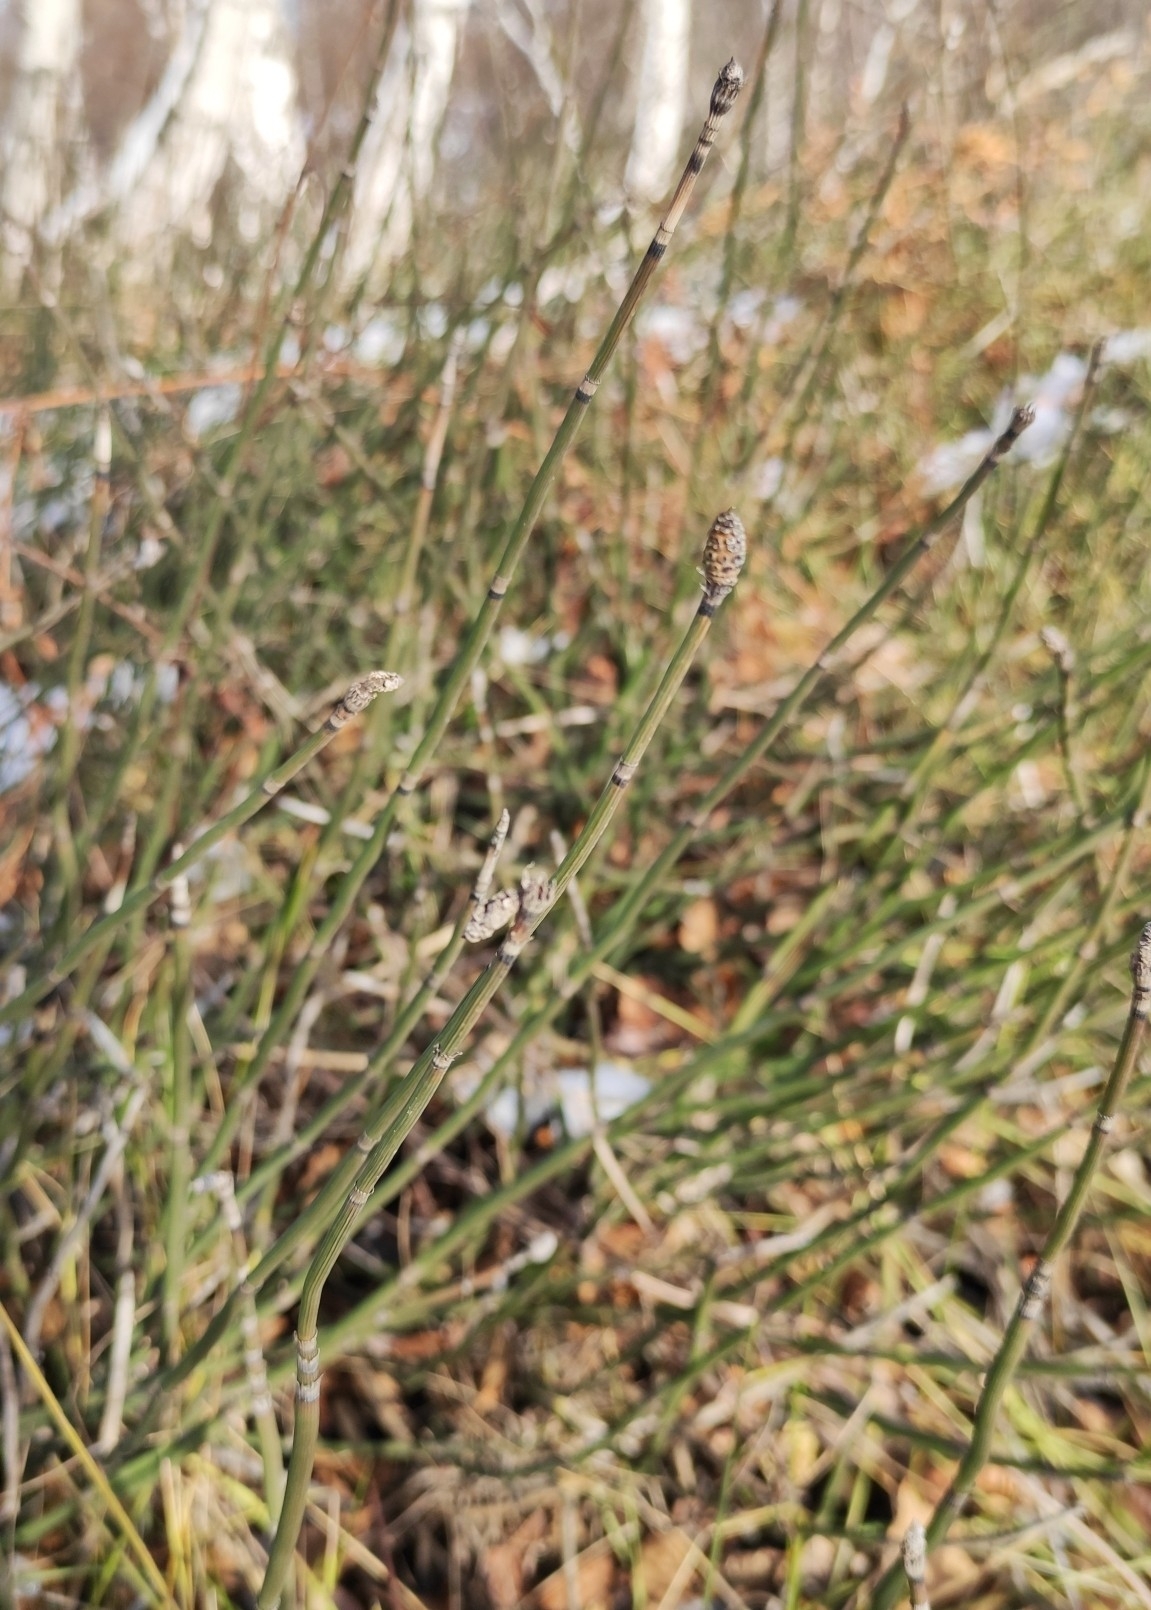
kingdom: Plantae
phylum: Tracheophyta
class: Polypodiopsida
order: Equisetales
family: Equisetaceae
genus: Equisetum
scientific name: Equisetum hyemale
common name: Rough horsetail
